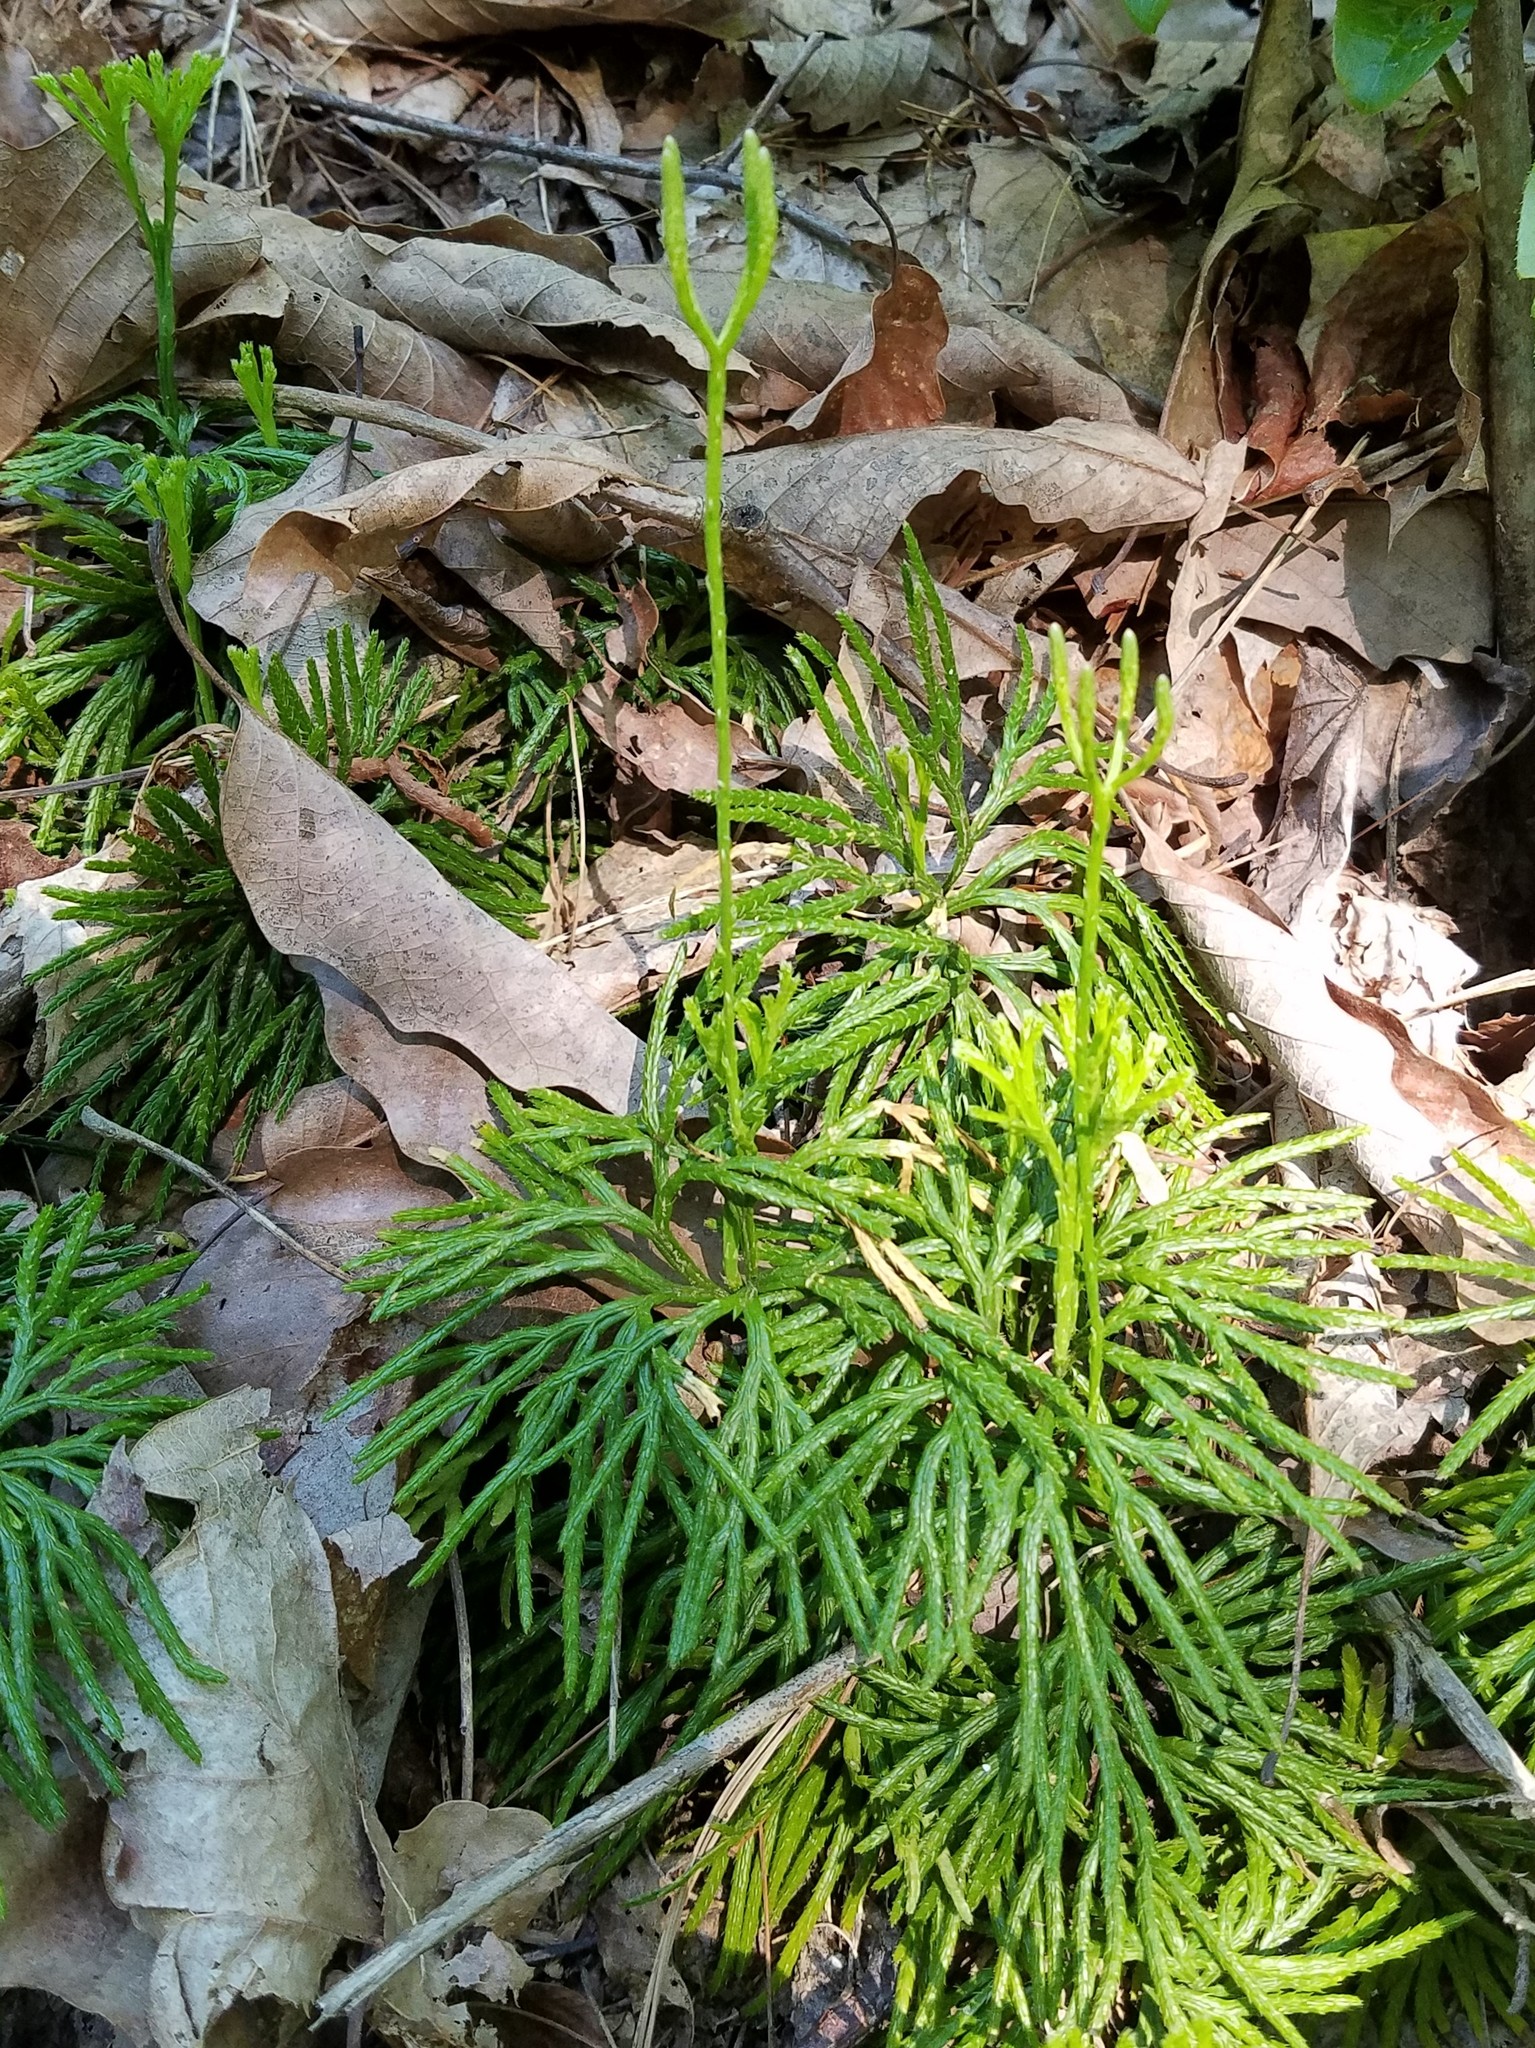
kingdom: Plantae
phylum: Tracheophyta
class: Lycopodiopsida
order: Lycopodiales
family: Lycopodiaceae
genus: Diphasiastrum
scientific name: Diphasiastrum digitatum
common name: Southern running-pine
